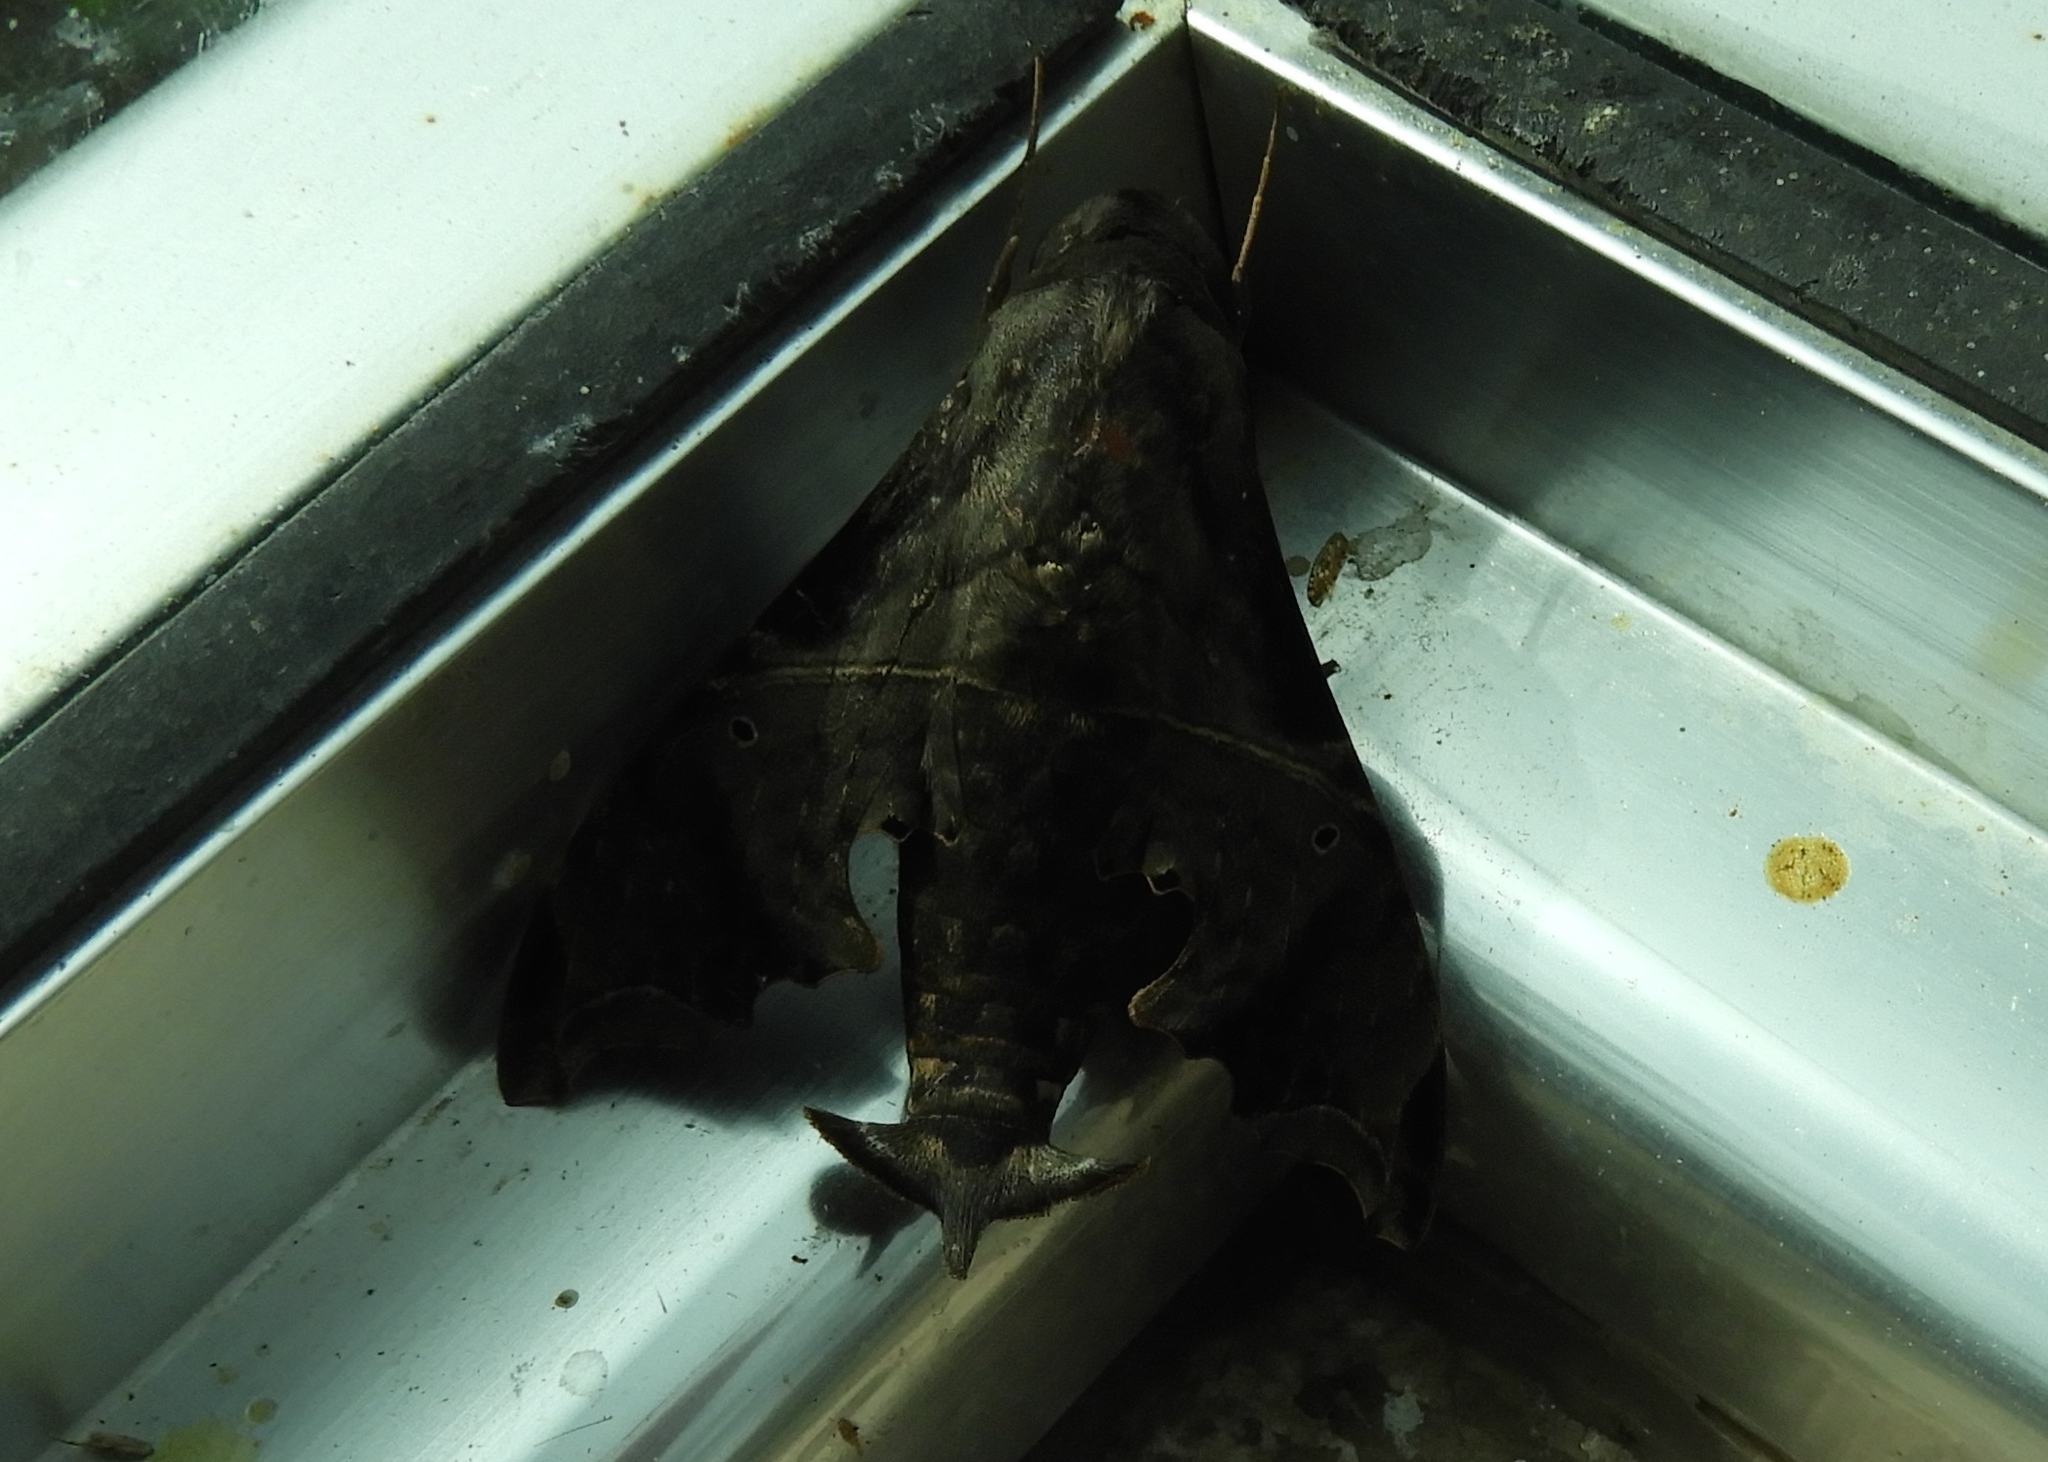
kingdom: Animalia
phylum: Arthropoda
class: Insecta
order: Lepidoptera
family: Sphingidae
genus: Enyo
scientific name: Enyo lugubris
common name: Mournful sphinx
